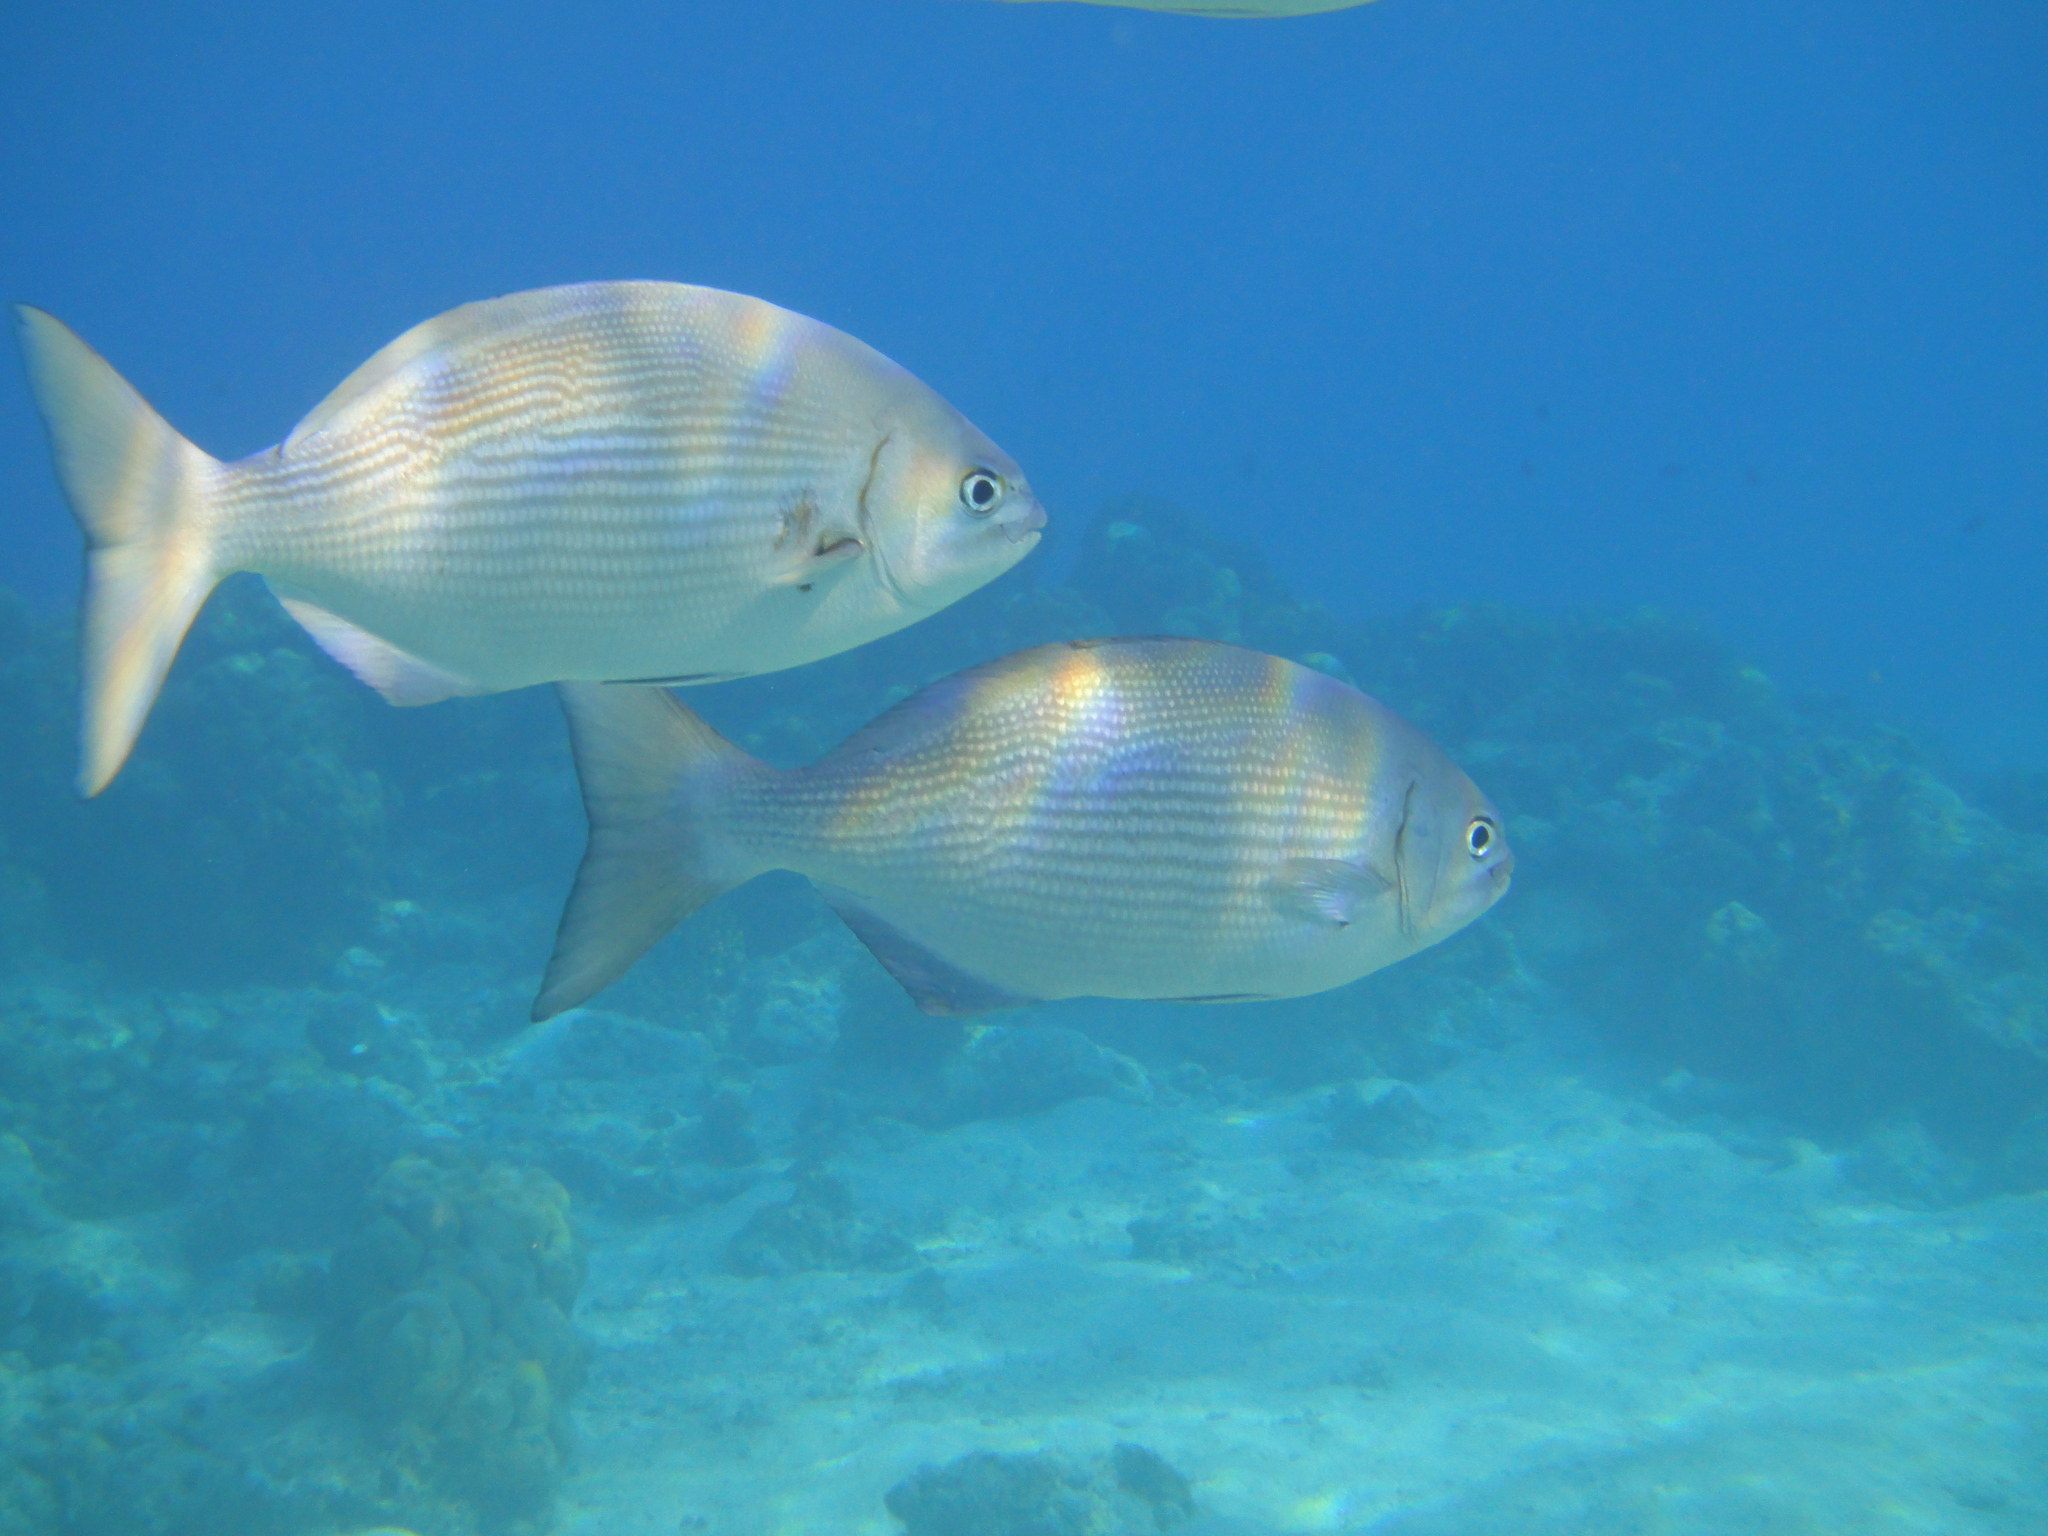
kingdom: Animalia
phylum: Chordata
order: Perciformes
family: Kyphosidae
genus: Kyphosus
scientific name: Kyphosus vaigiensis
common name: Brassy chub
